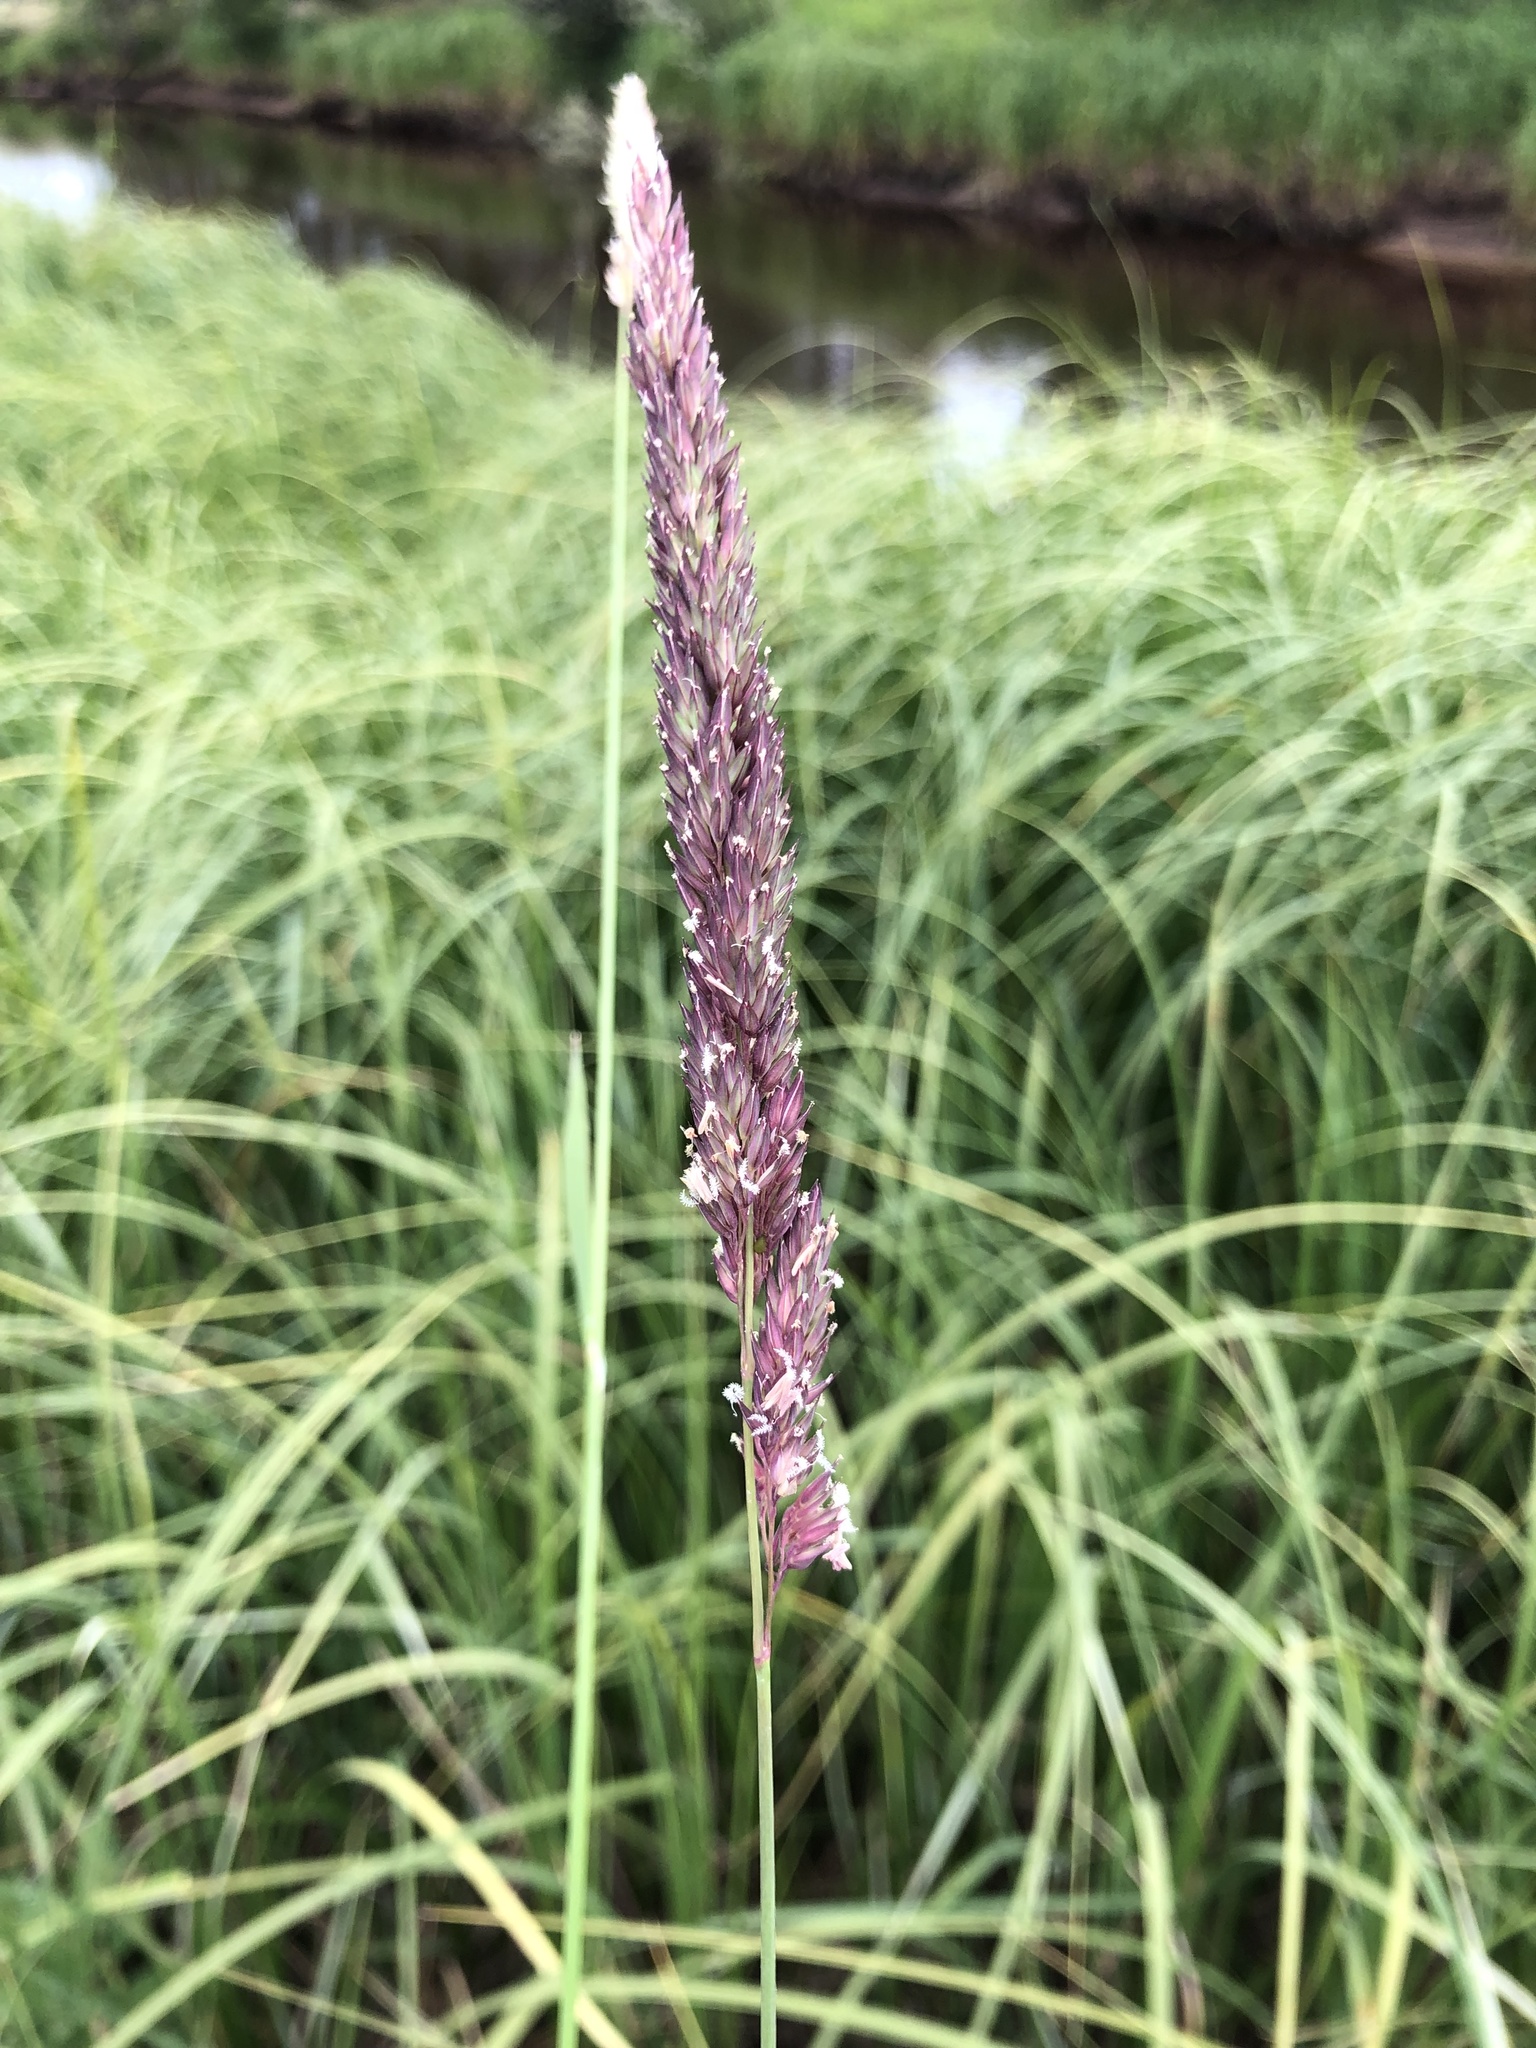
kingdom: Plantae
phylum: Tracheophyta
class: Liliopsida
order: Poales
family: Poaceae
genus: Phalaris
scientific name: Phalaris arundinacea
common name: Reed canary-grass
